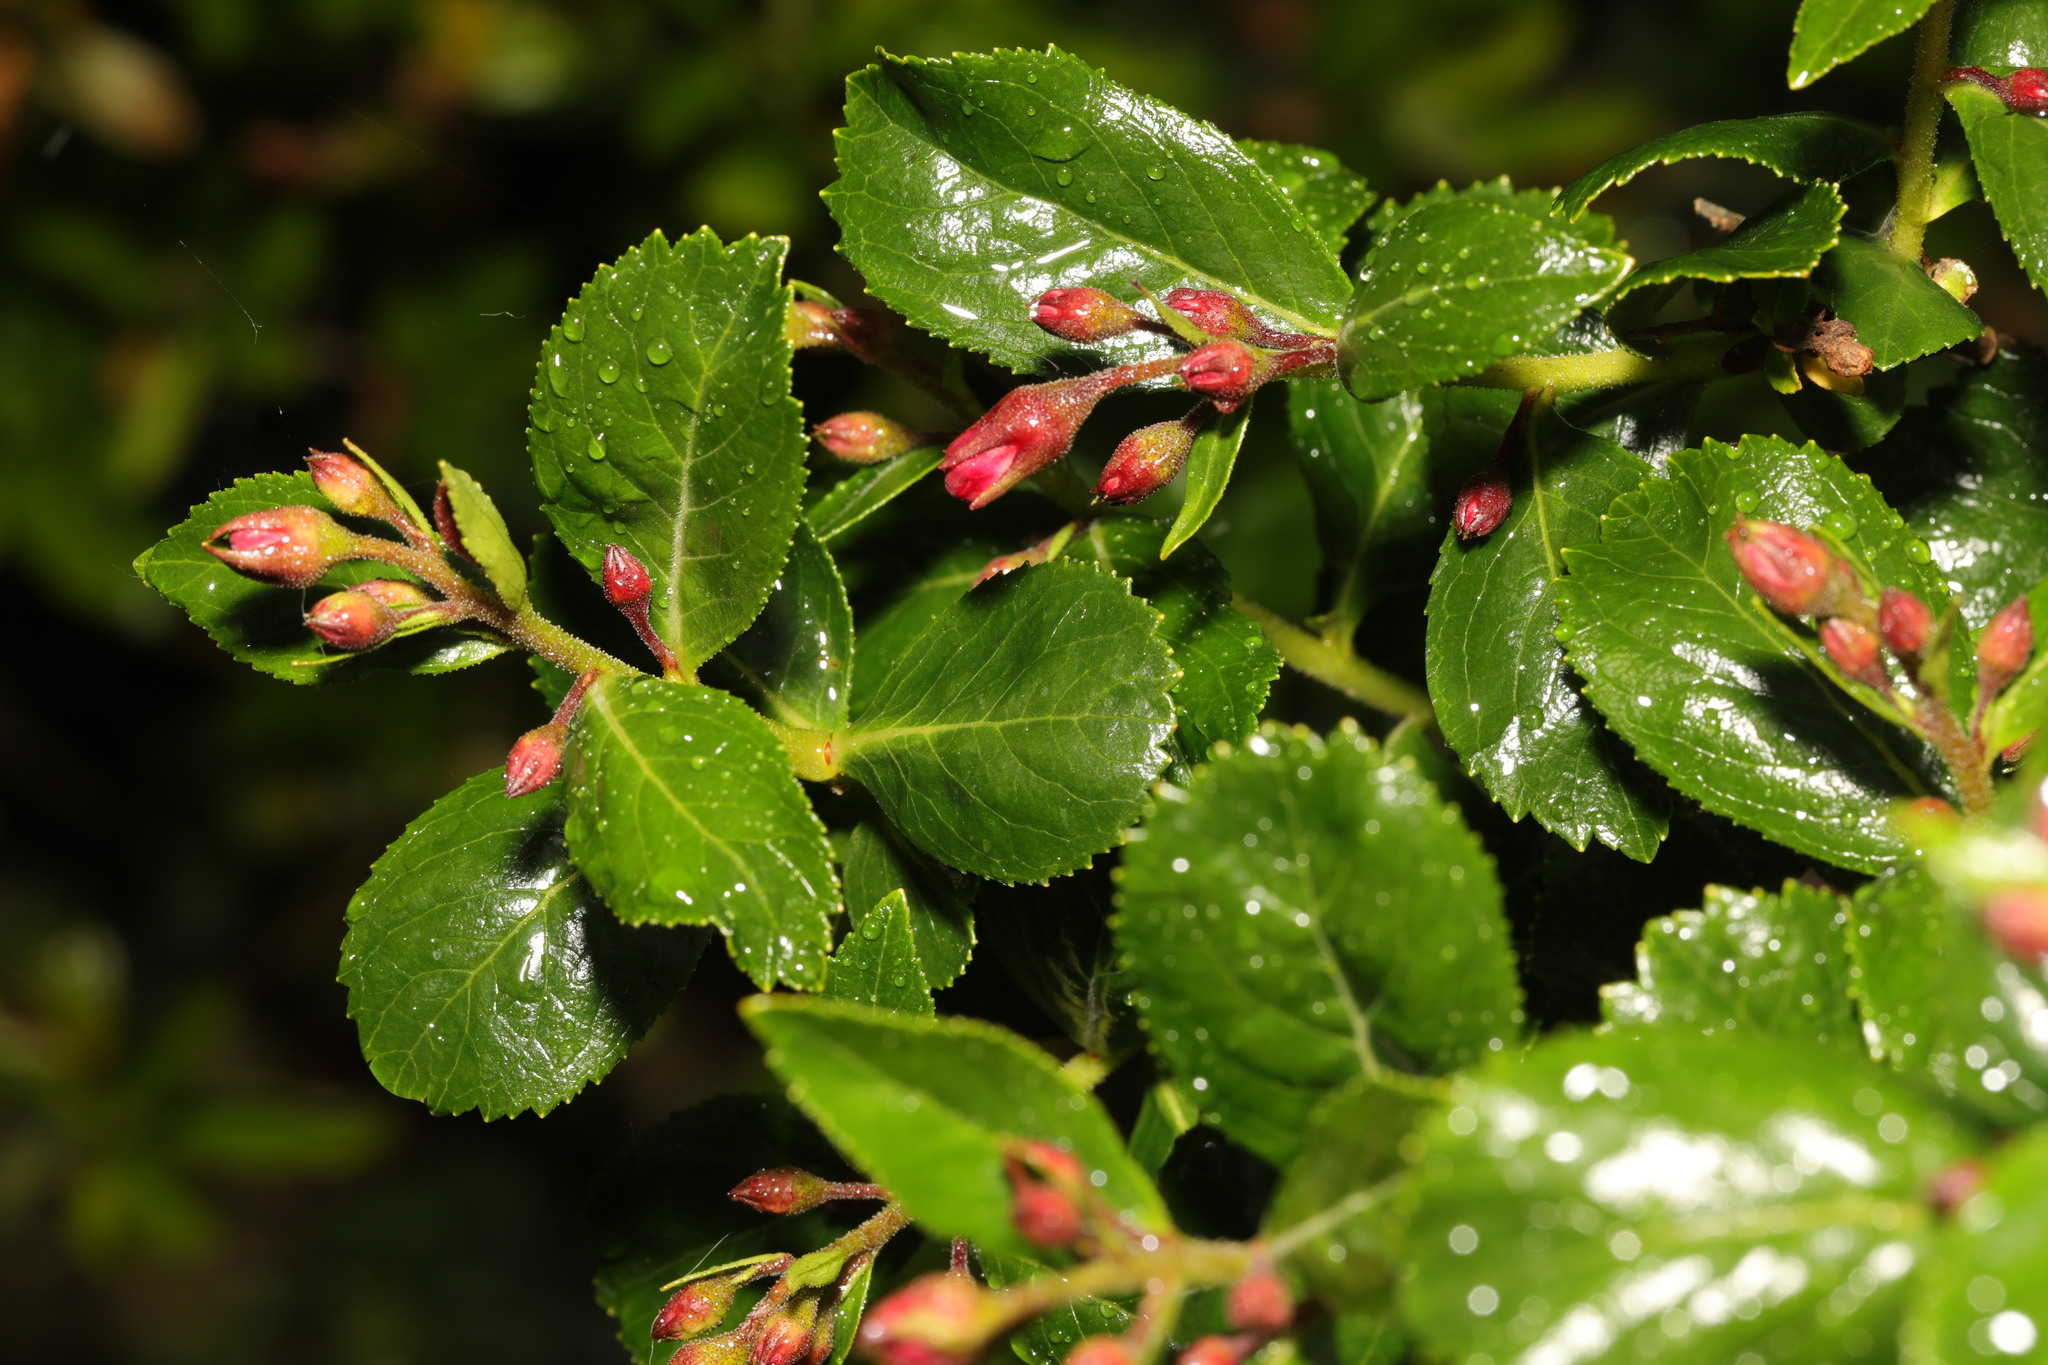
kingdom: Plantae
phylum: Tracheophyta
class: Magnoliopsida
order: Escalloniales
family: Escalloniaceae
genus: Escallonia
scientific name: Escallonia rubra
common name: Redclaws
